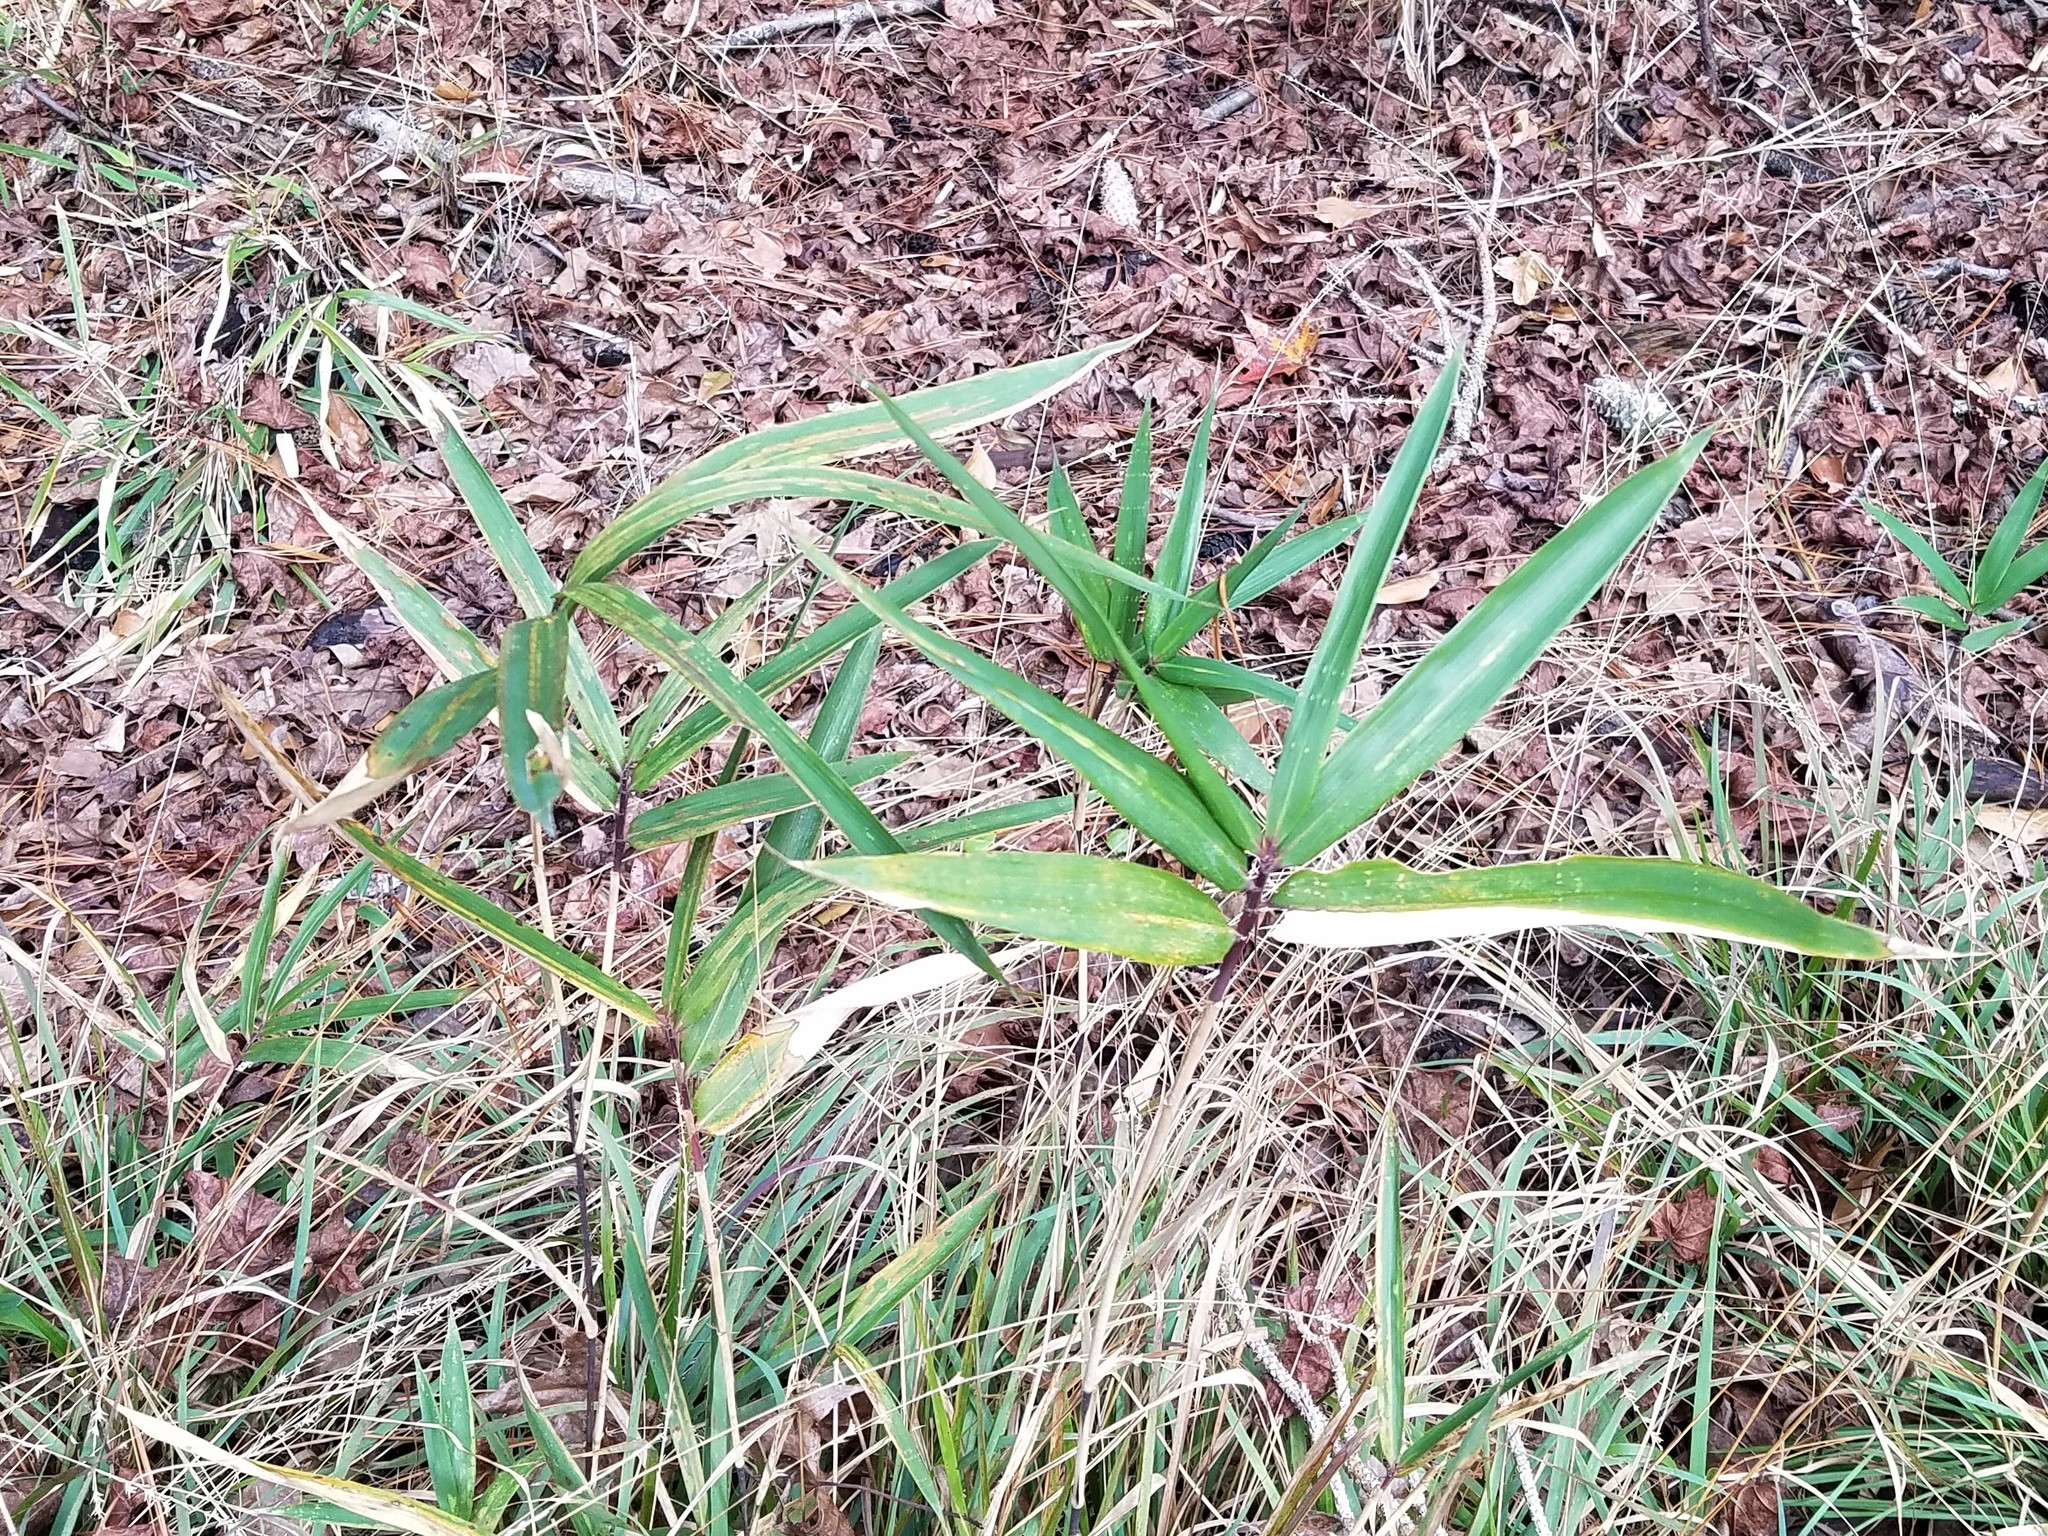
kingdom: Plantae
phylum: Tracheophyta
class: Liliopsida
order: Poales
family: Poaceae
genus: Arundinaria
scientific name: Arundinaria tecta
